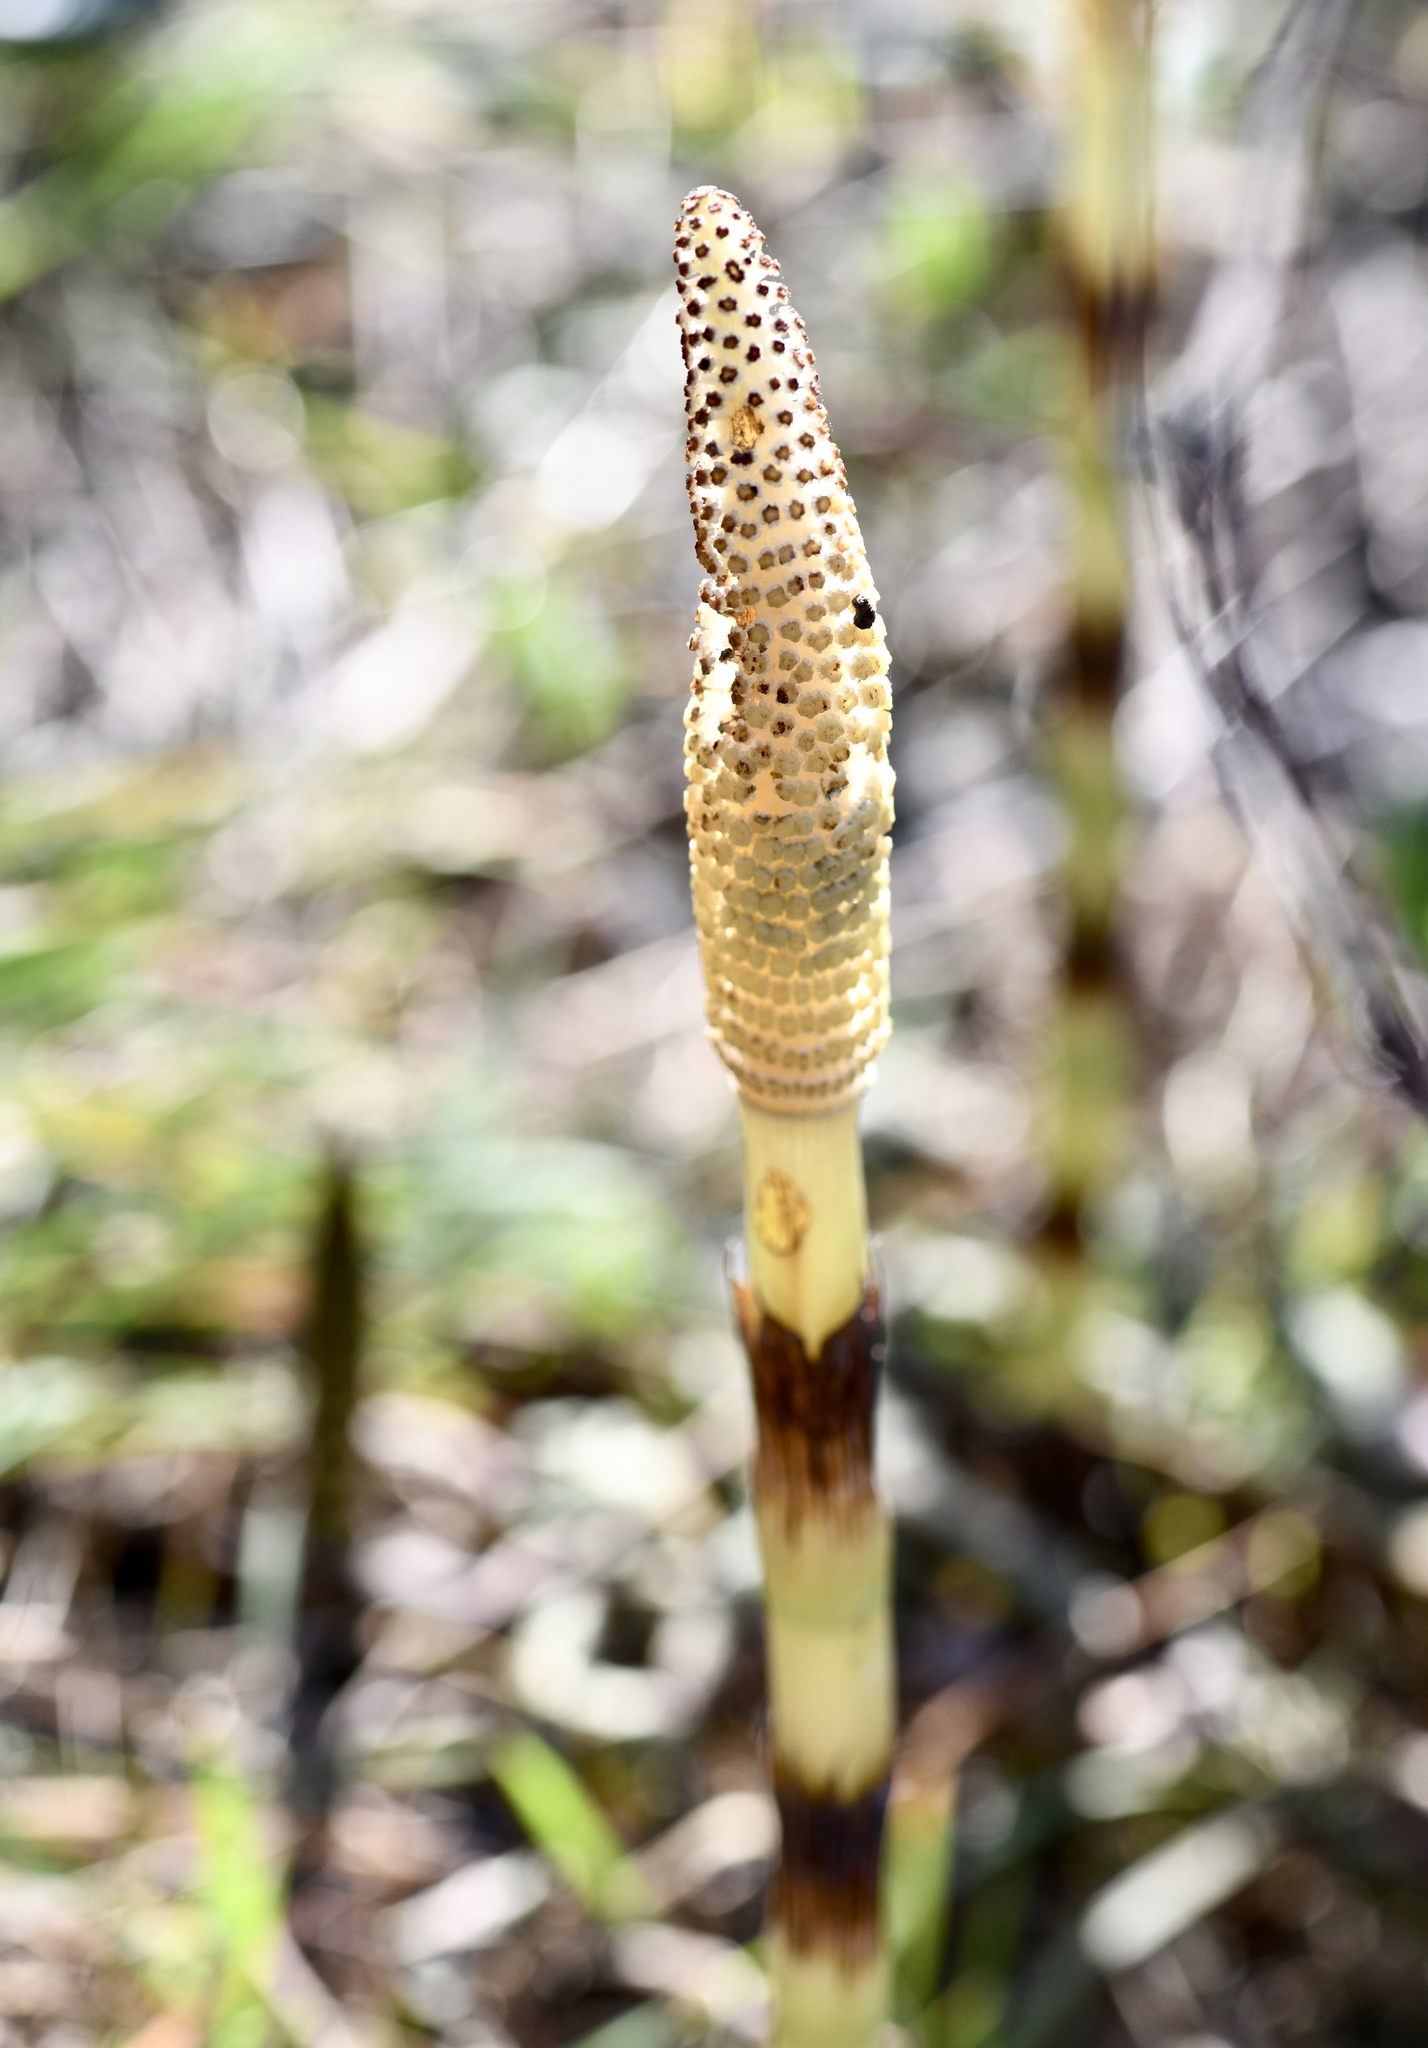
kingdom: Plantae
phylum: Tracheophyta
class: Polypodiopsida
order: Equisetales
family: Equisetaceae
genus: Equisetum
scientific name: Equisetum braunii
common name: Braun's horsetail
